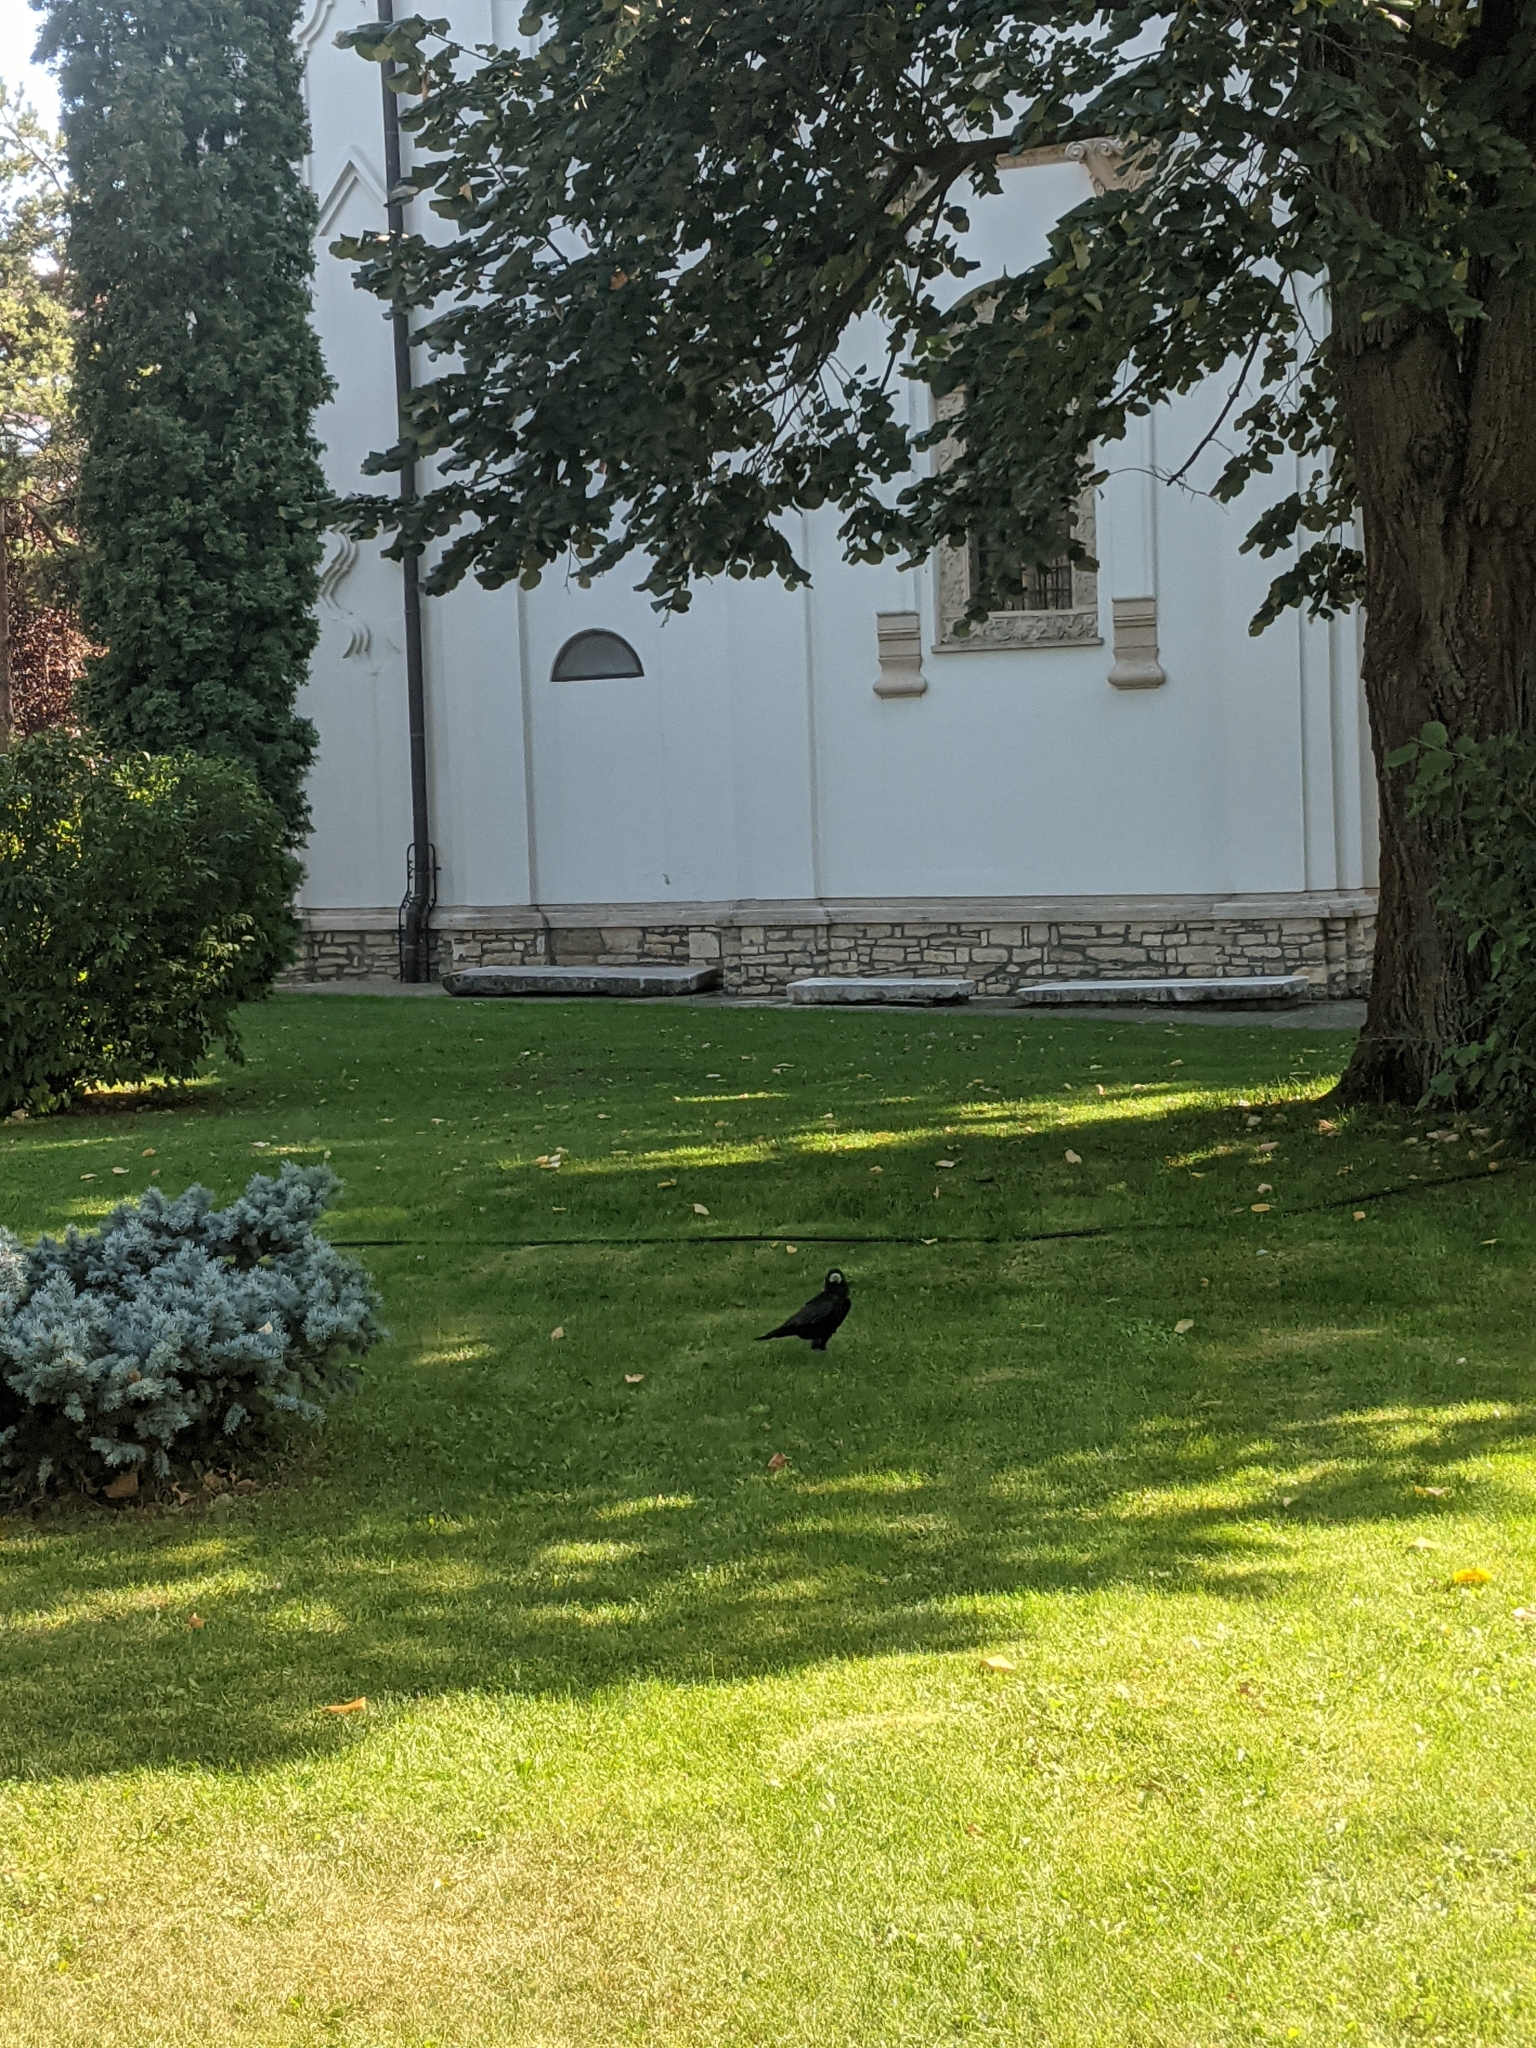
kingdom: Animalia
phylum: Chordata
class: Aves
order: Passeriformes
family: Corvidae
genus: Corvus
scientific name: Corvus frugilegus
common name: Rook
